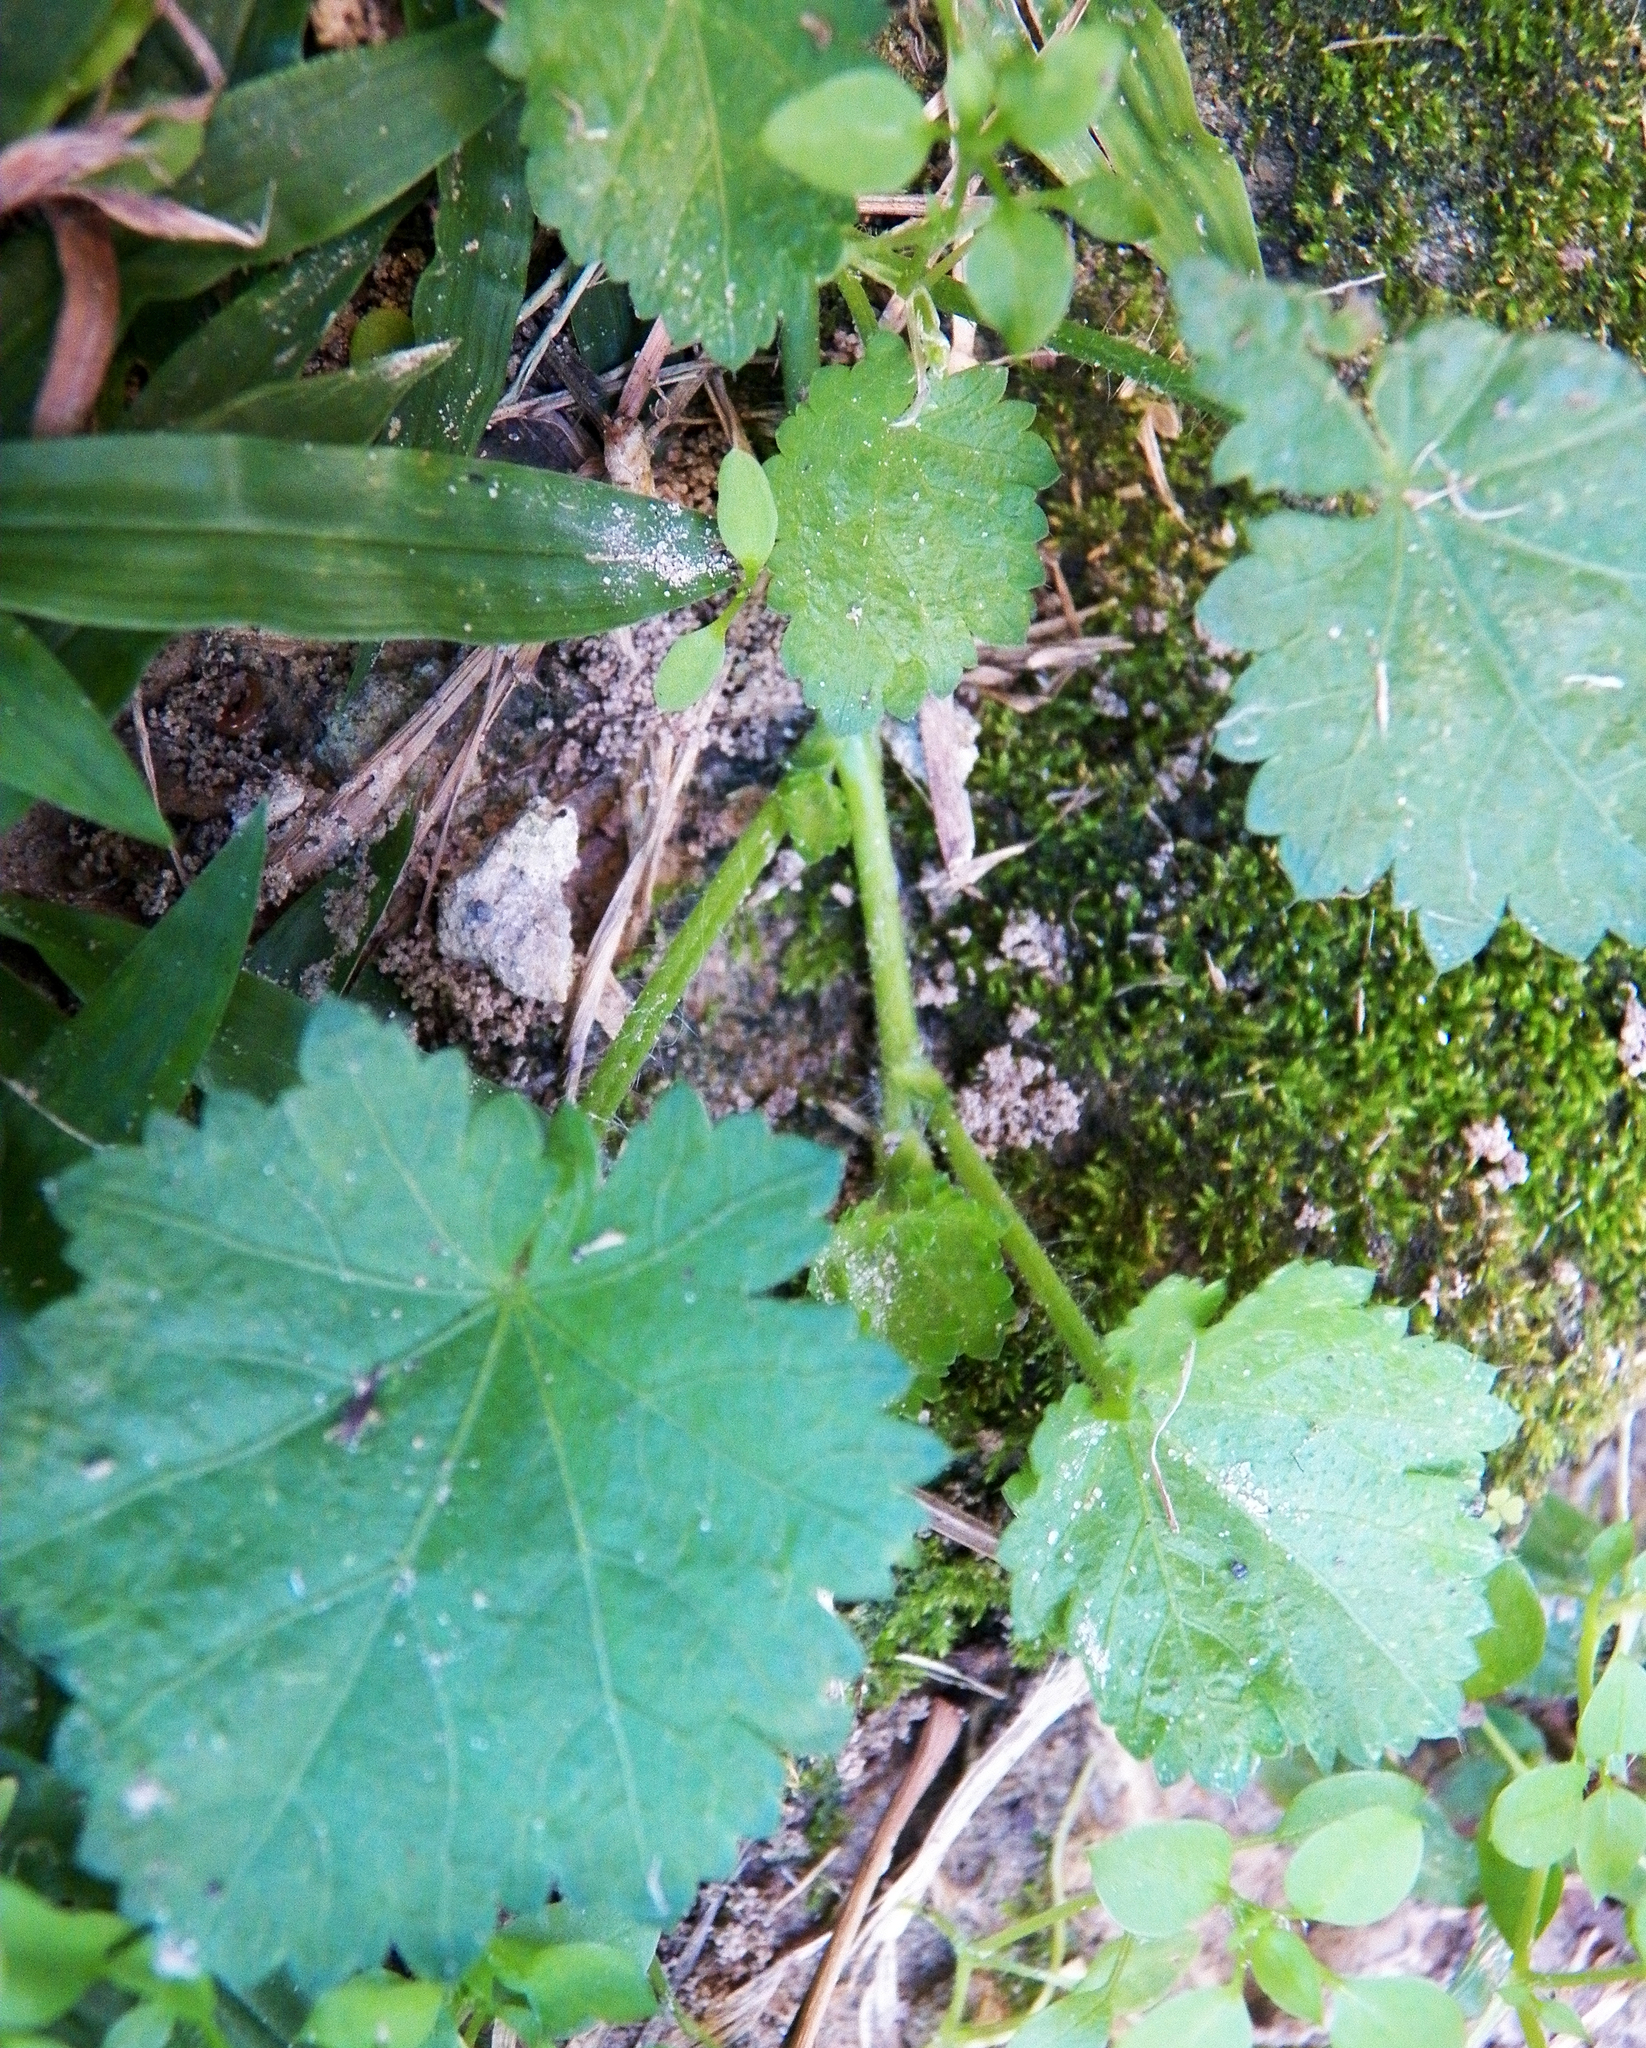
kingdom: Plantae
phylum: Tracheophyta
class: Magnoliopsida
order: Malvales
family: Malvaceae
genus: Modiola
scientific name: Modiola caroliniana
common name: Carolina bristlemallow
